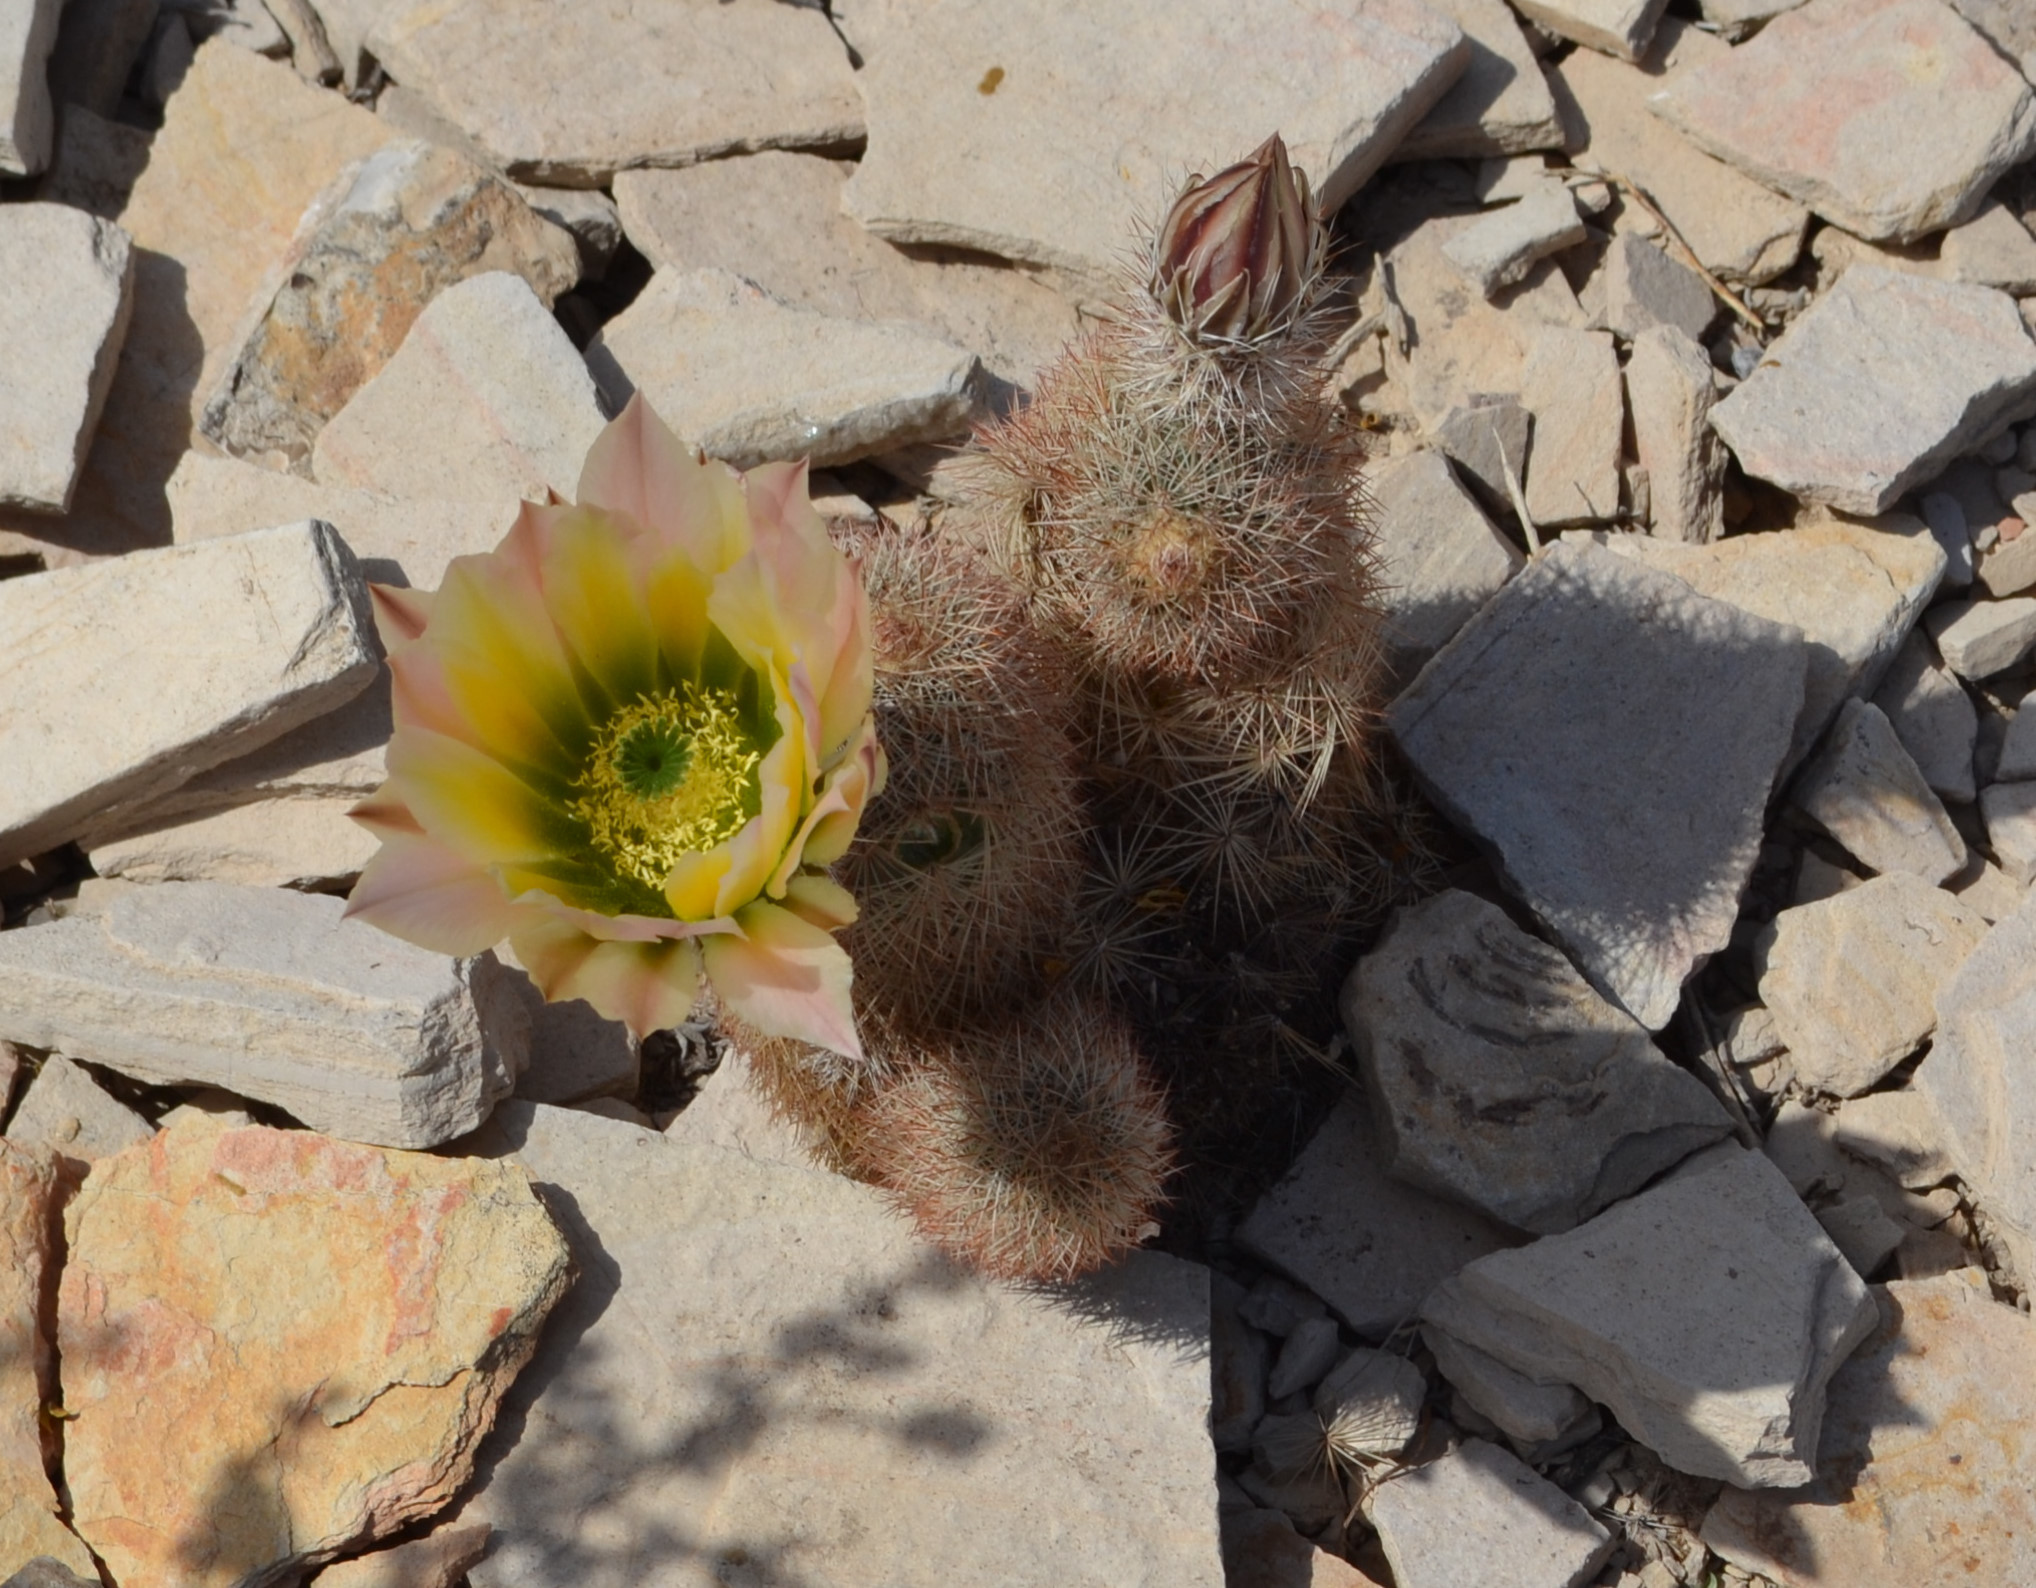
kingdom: Plantae
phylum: Tracheophyta
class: Magnoliopsida
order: Caryophyllales
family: Cactaceae
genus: Echinocereus
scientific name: Echinocereus dasyacanthus
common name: Spiny hedgehog cactus
